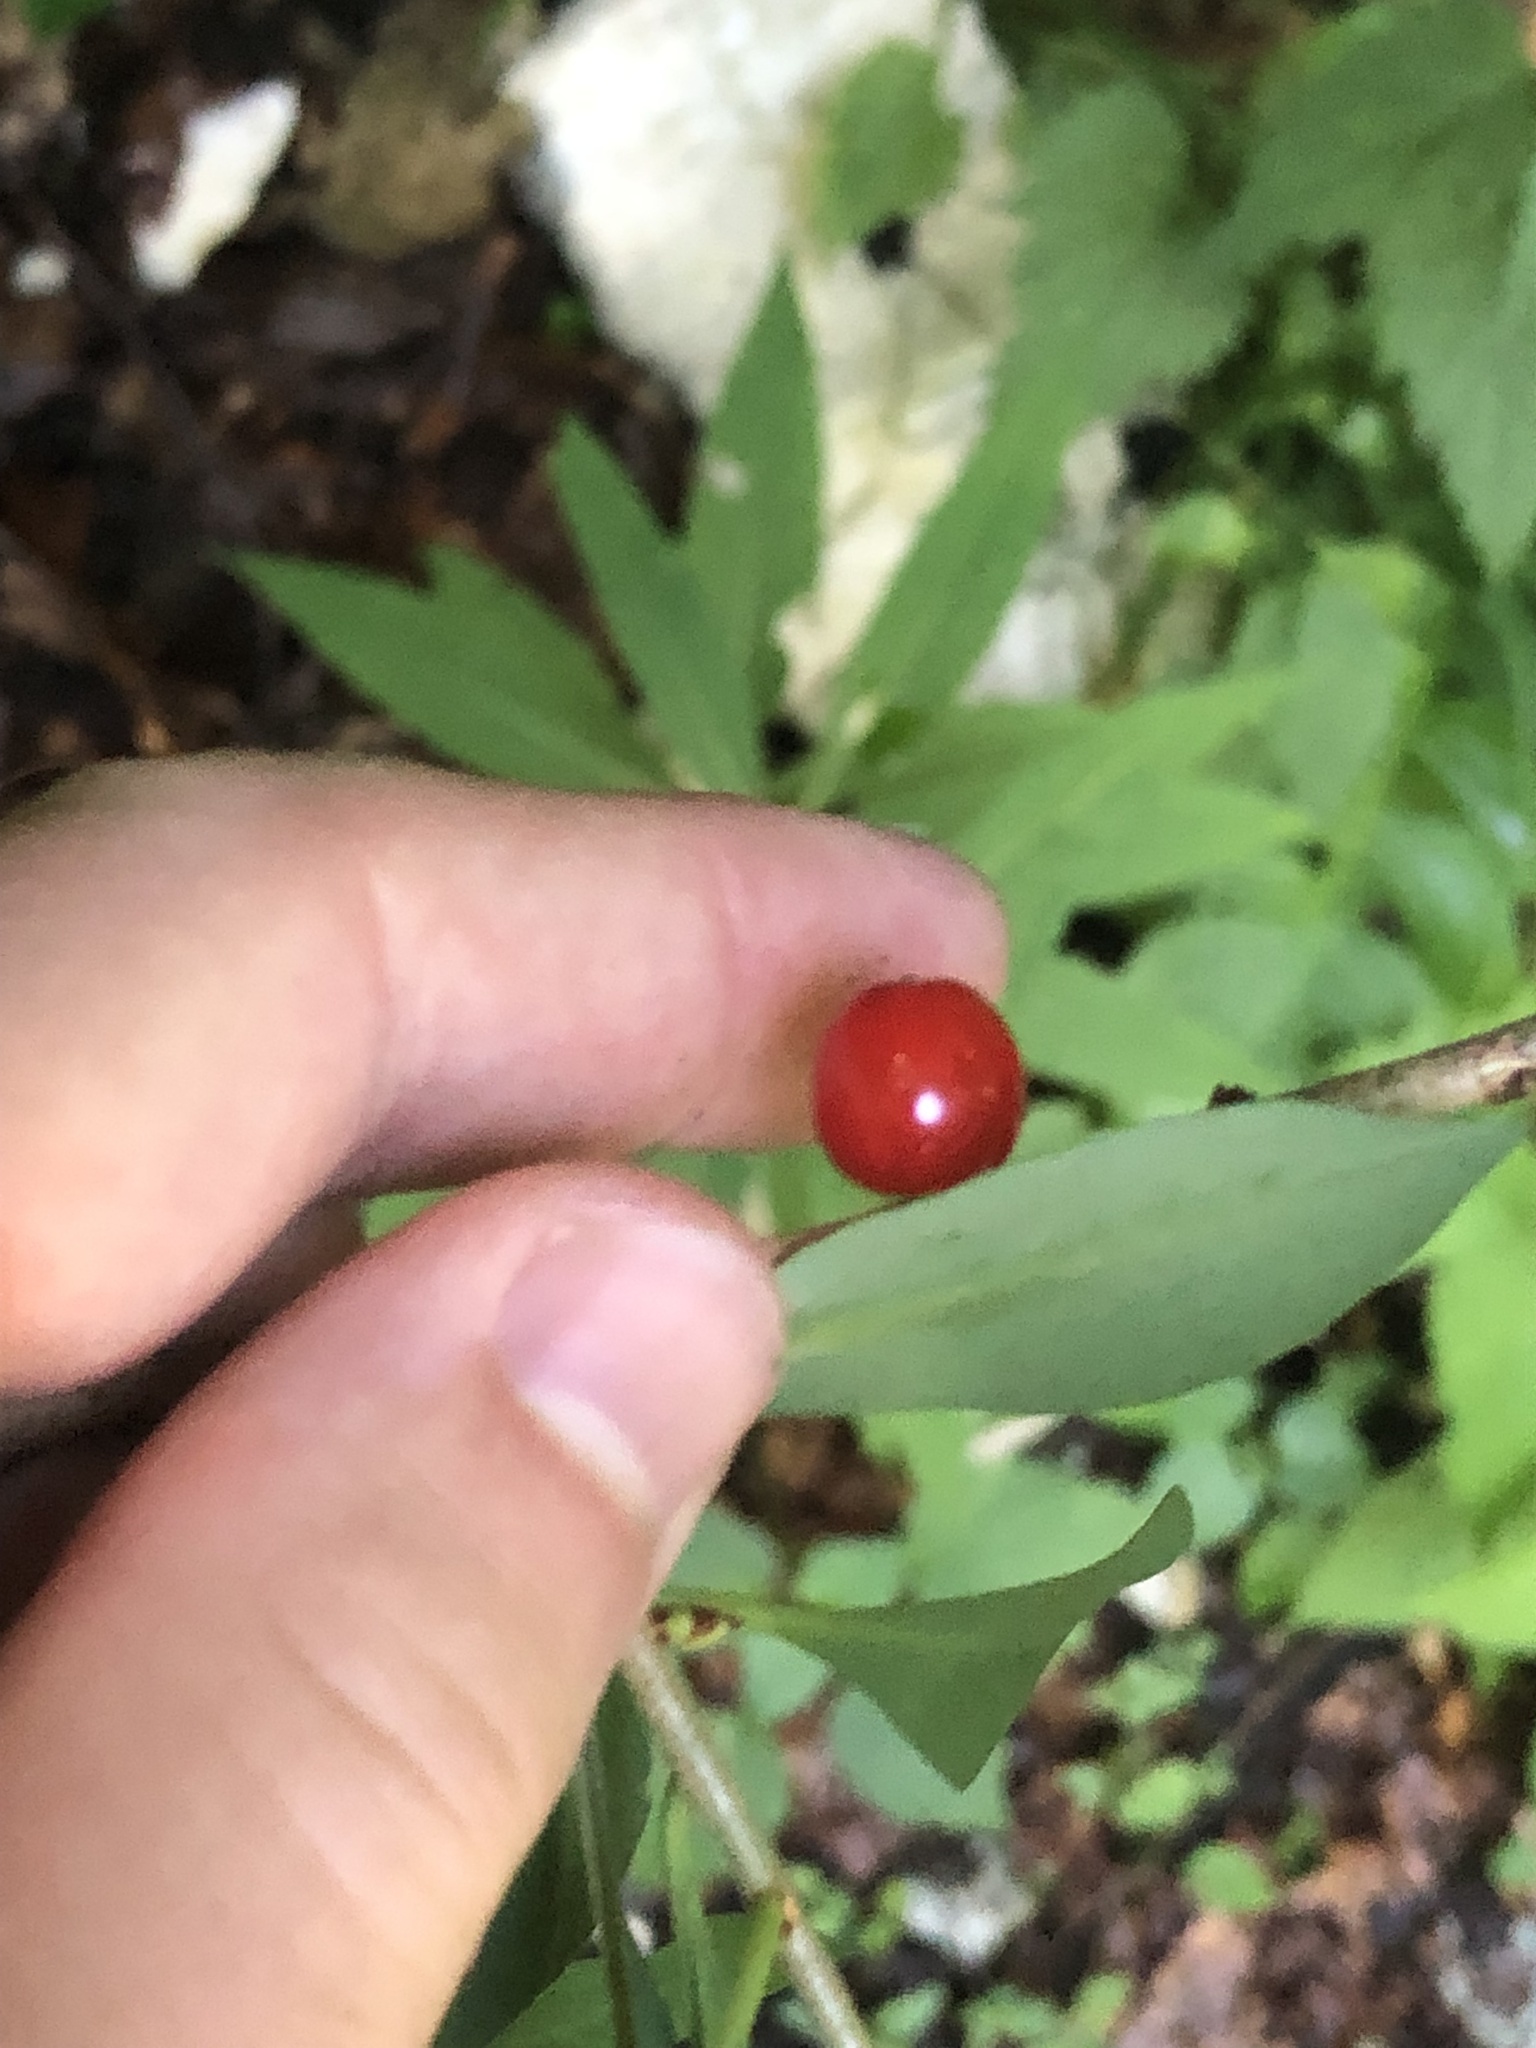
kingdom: Plantae
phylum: Tracheophyta
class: Magnoliopsida
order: Malvales
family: Thymelaeaceae
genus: Daphne
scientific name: Daphne mezereum
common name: Mezereon
